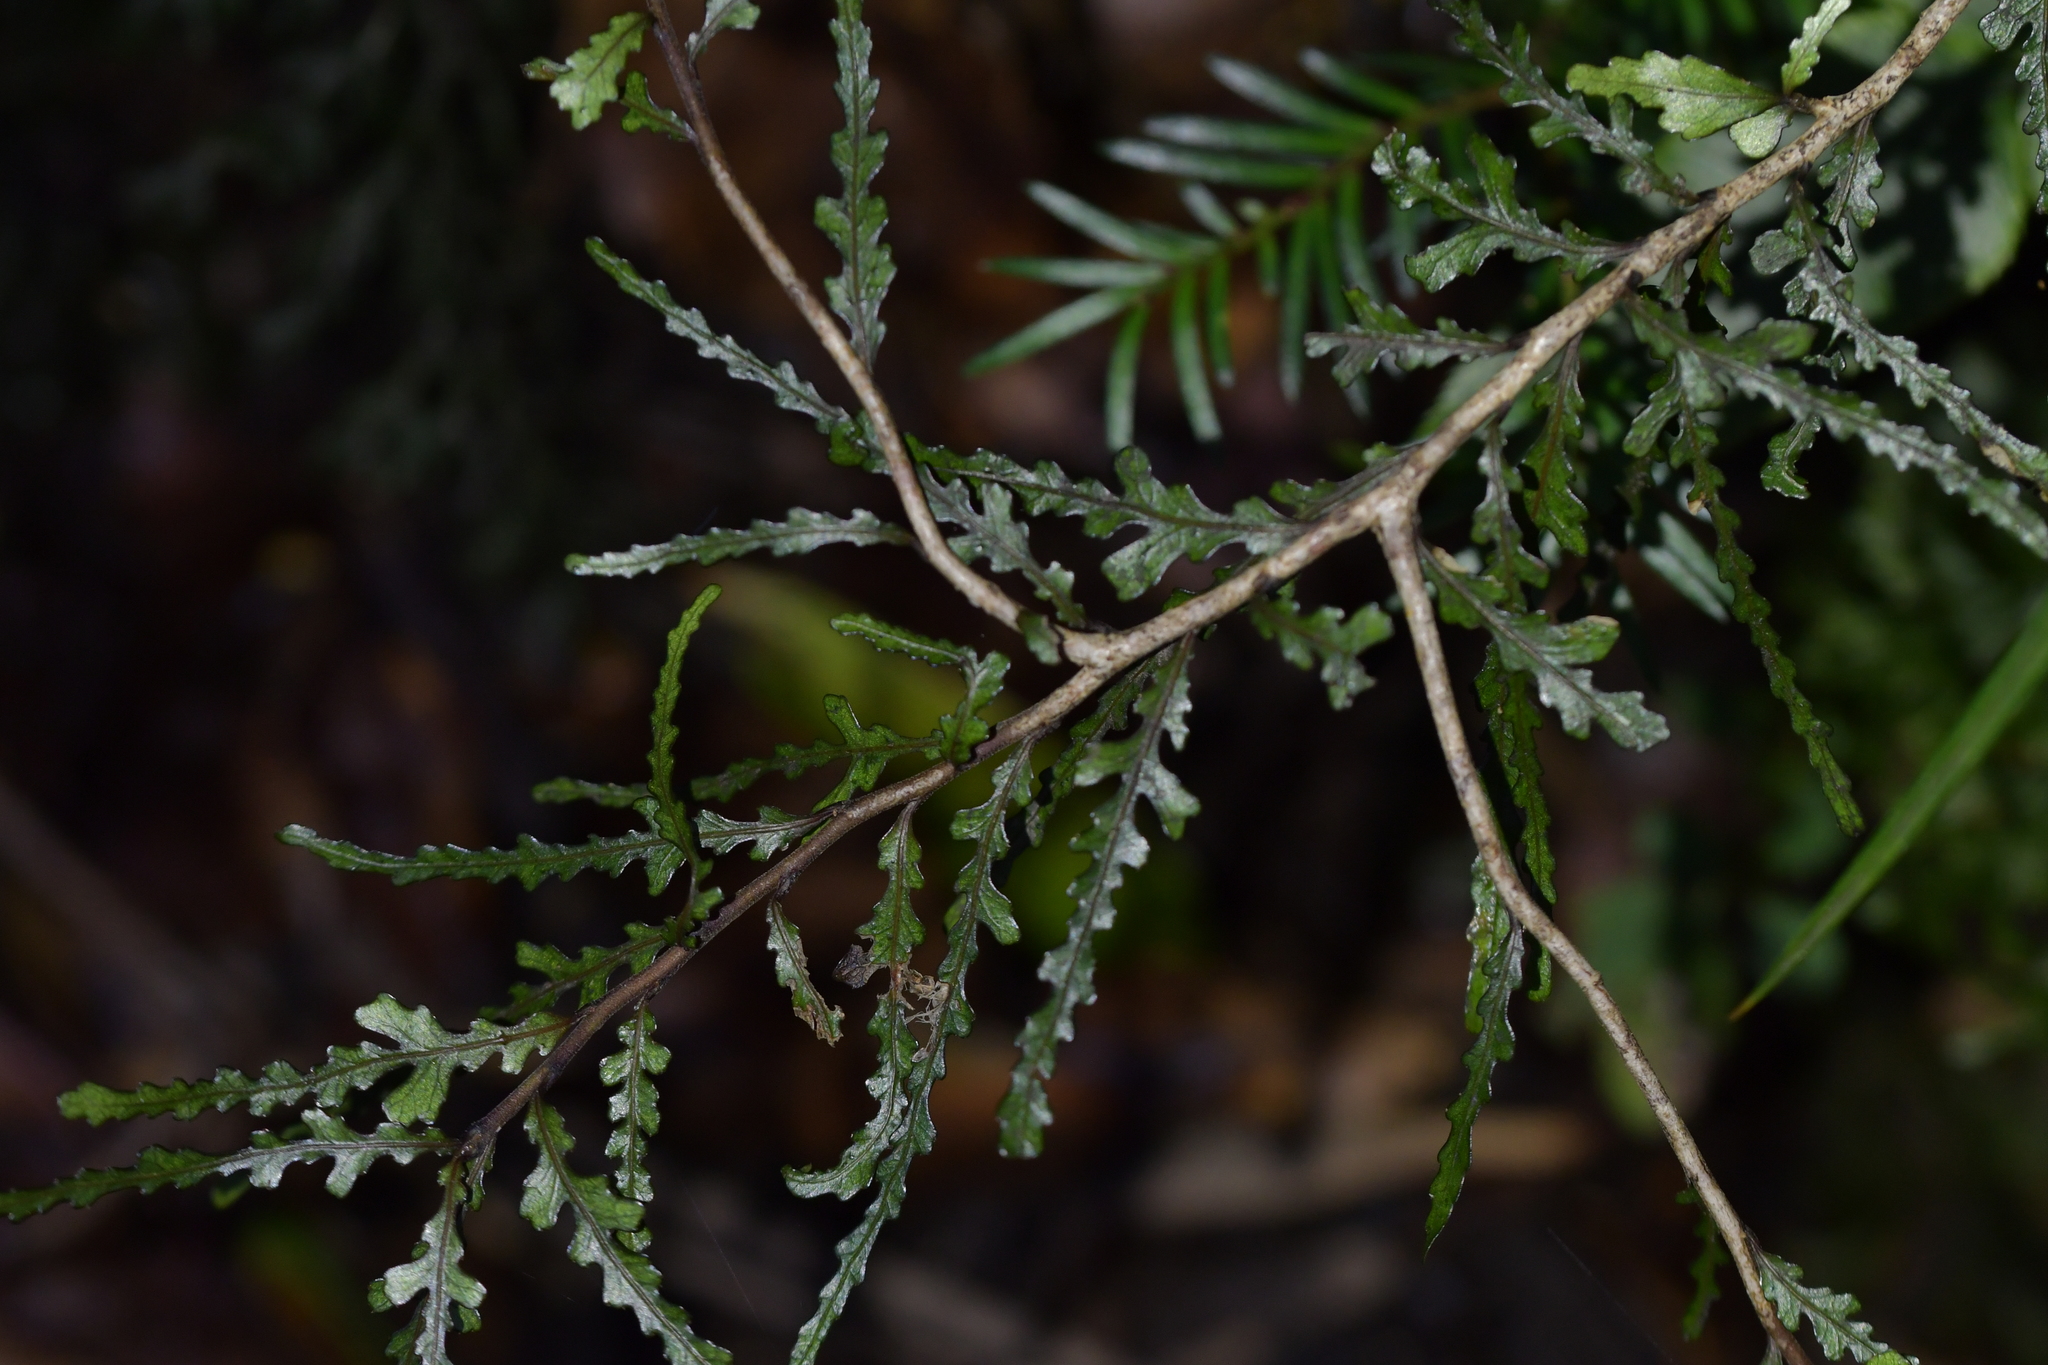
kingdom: Plantae
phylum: Tracheophyta
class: Magnoliopsida
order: Oxalidales
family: Elaeocarpaceae
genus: Elaeocarpus
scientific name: Elaeocarpus hookerianus
